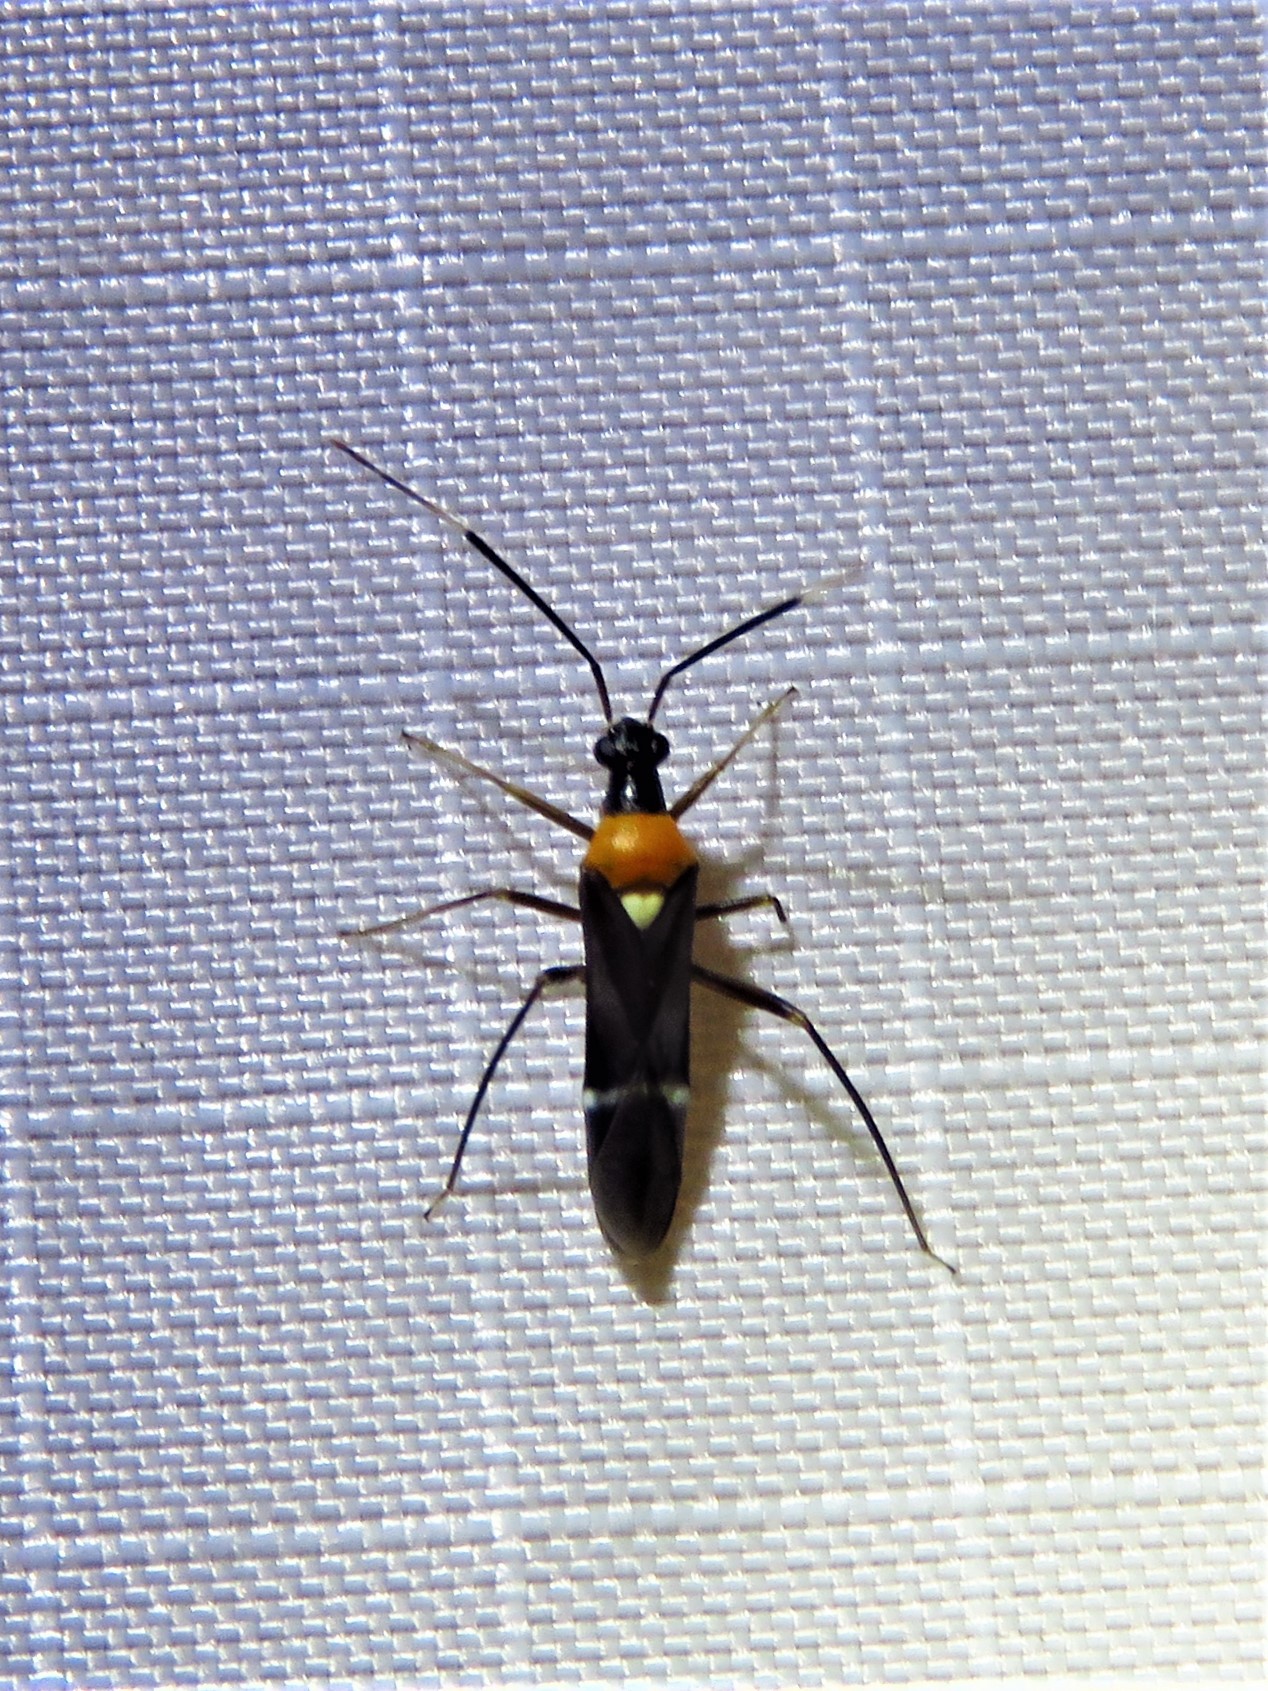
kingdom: Animalia
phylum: Arthropoda
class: Insecta
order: Hemiptera
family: Miridae
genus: Pseudoxenetus
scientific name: Pseudoxenetus regalis
